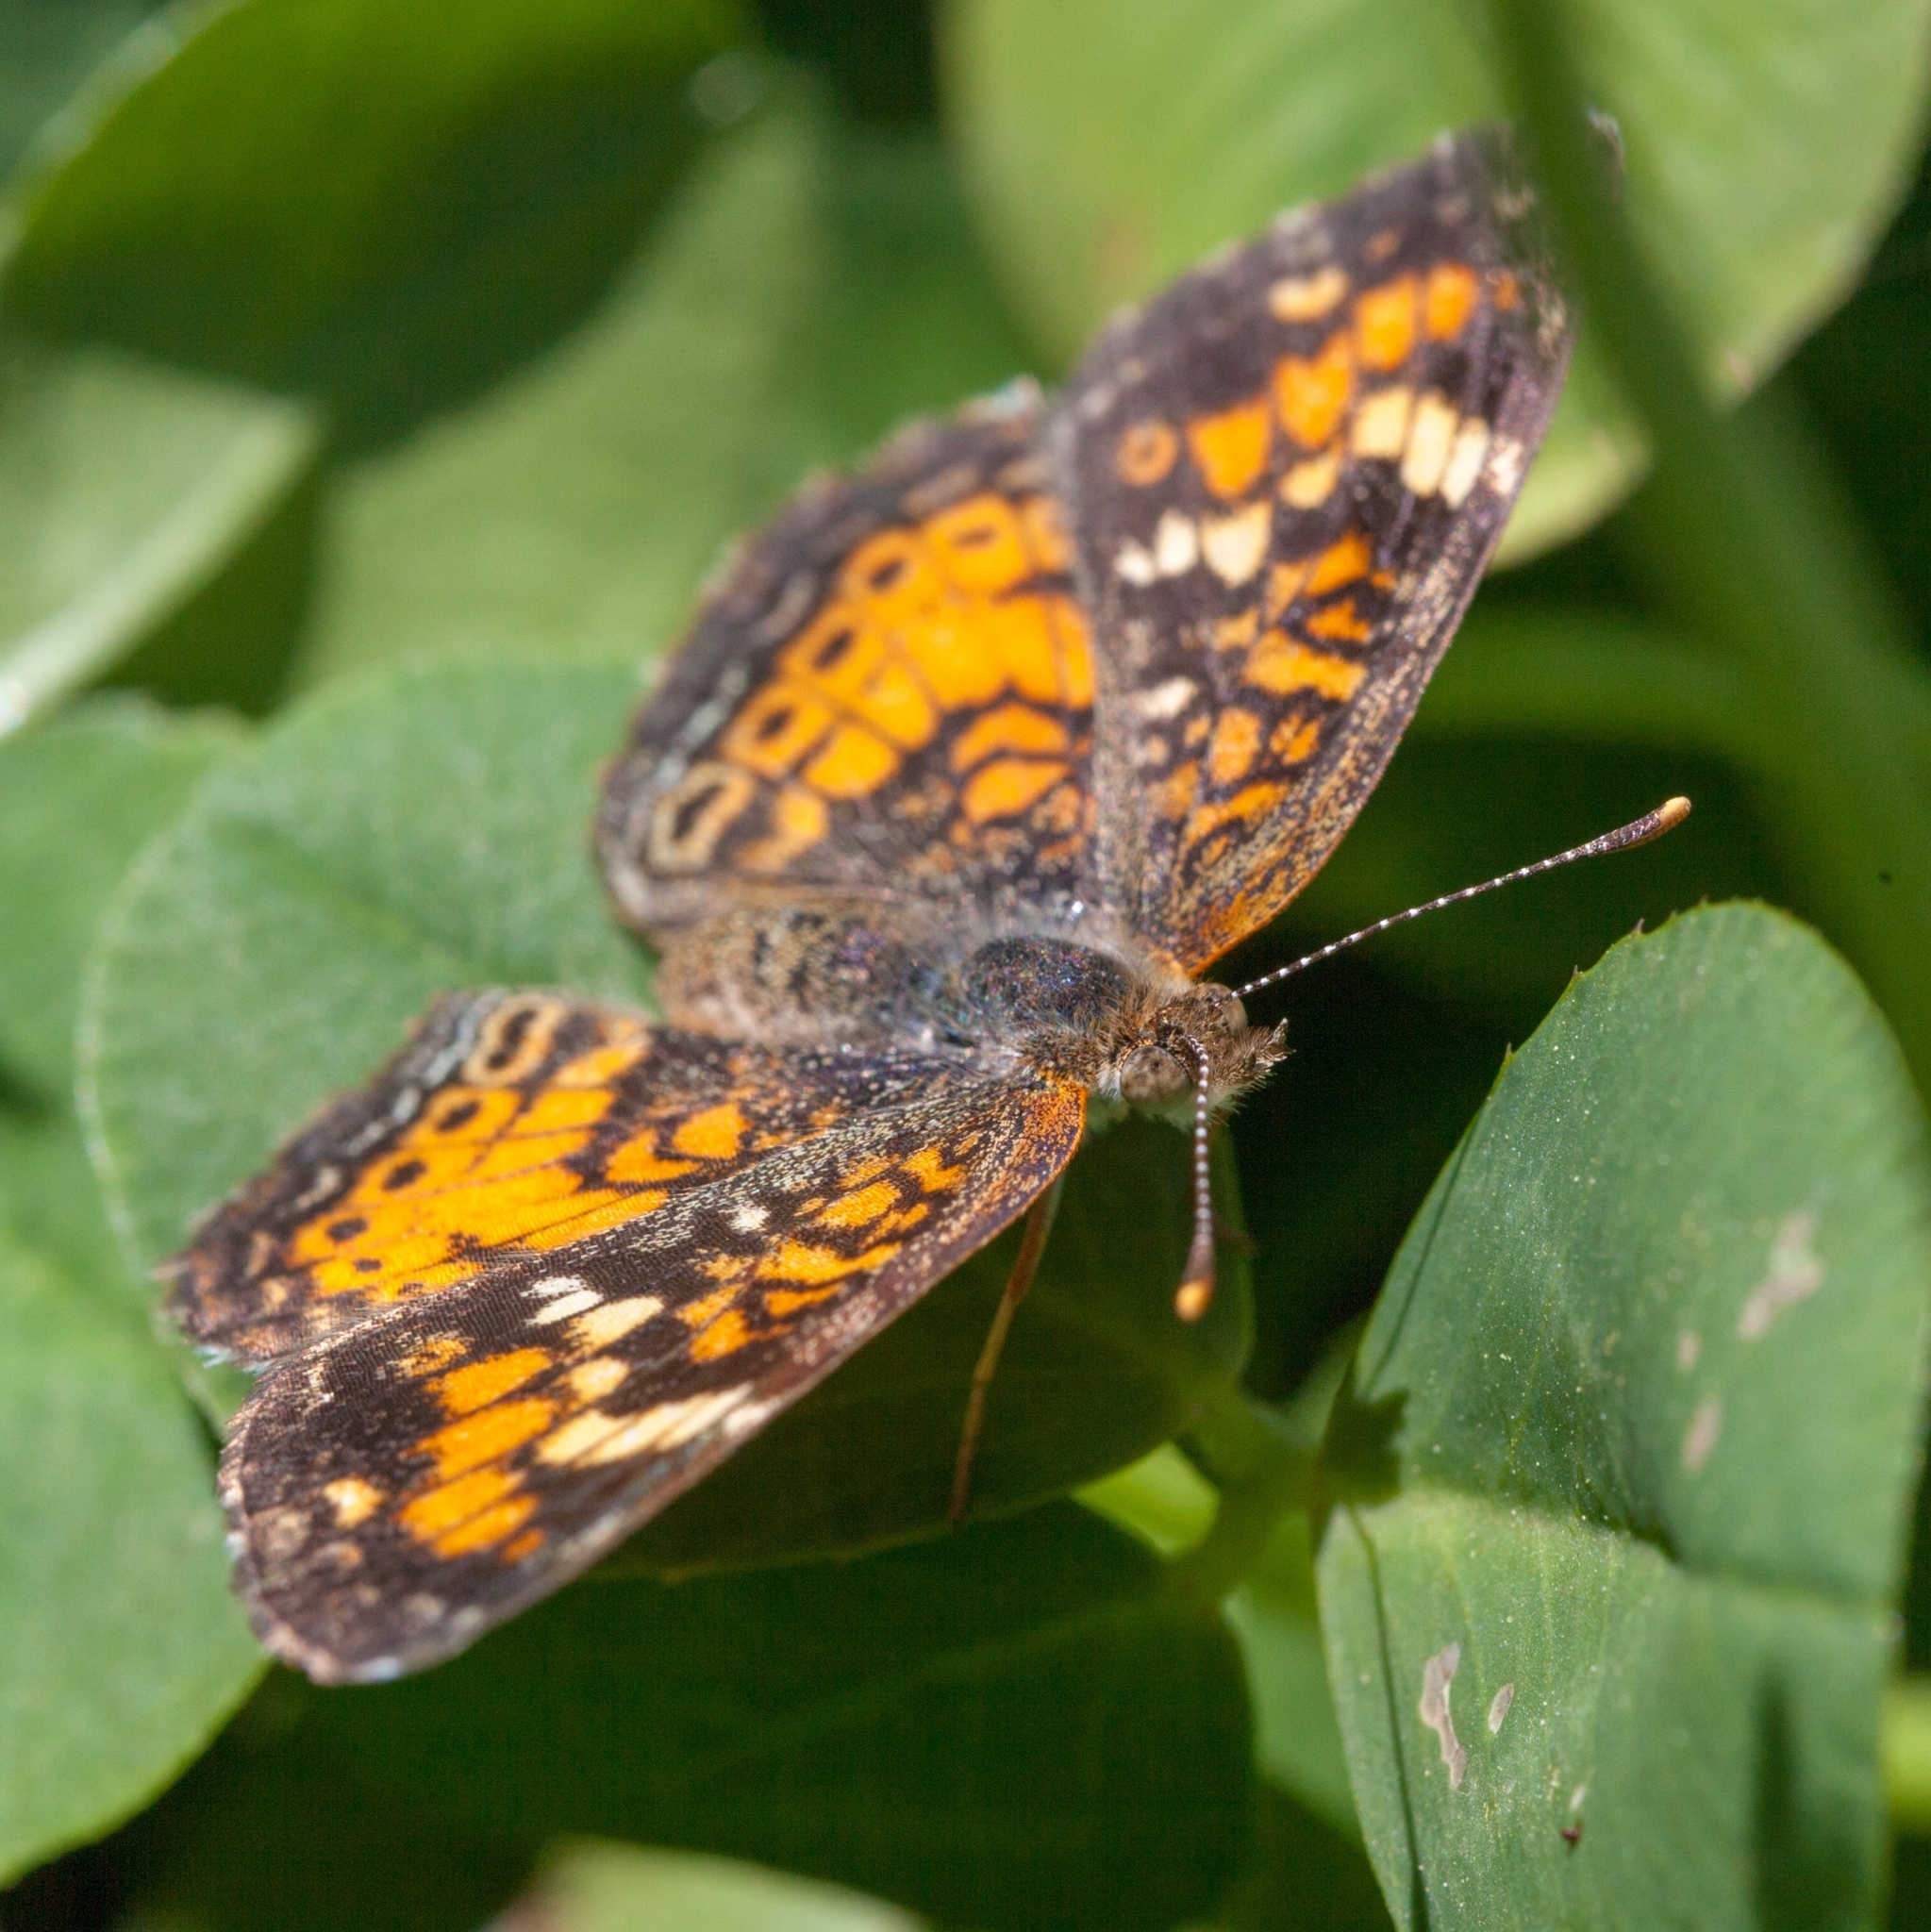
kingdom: Animalia
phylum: Arthropoda
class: Insecta
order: Lepidoptera
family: Nymphalidae
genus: Phyciodes
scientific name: Phyciodes phaon
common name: Phaon crescent
